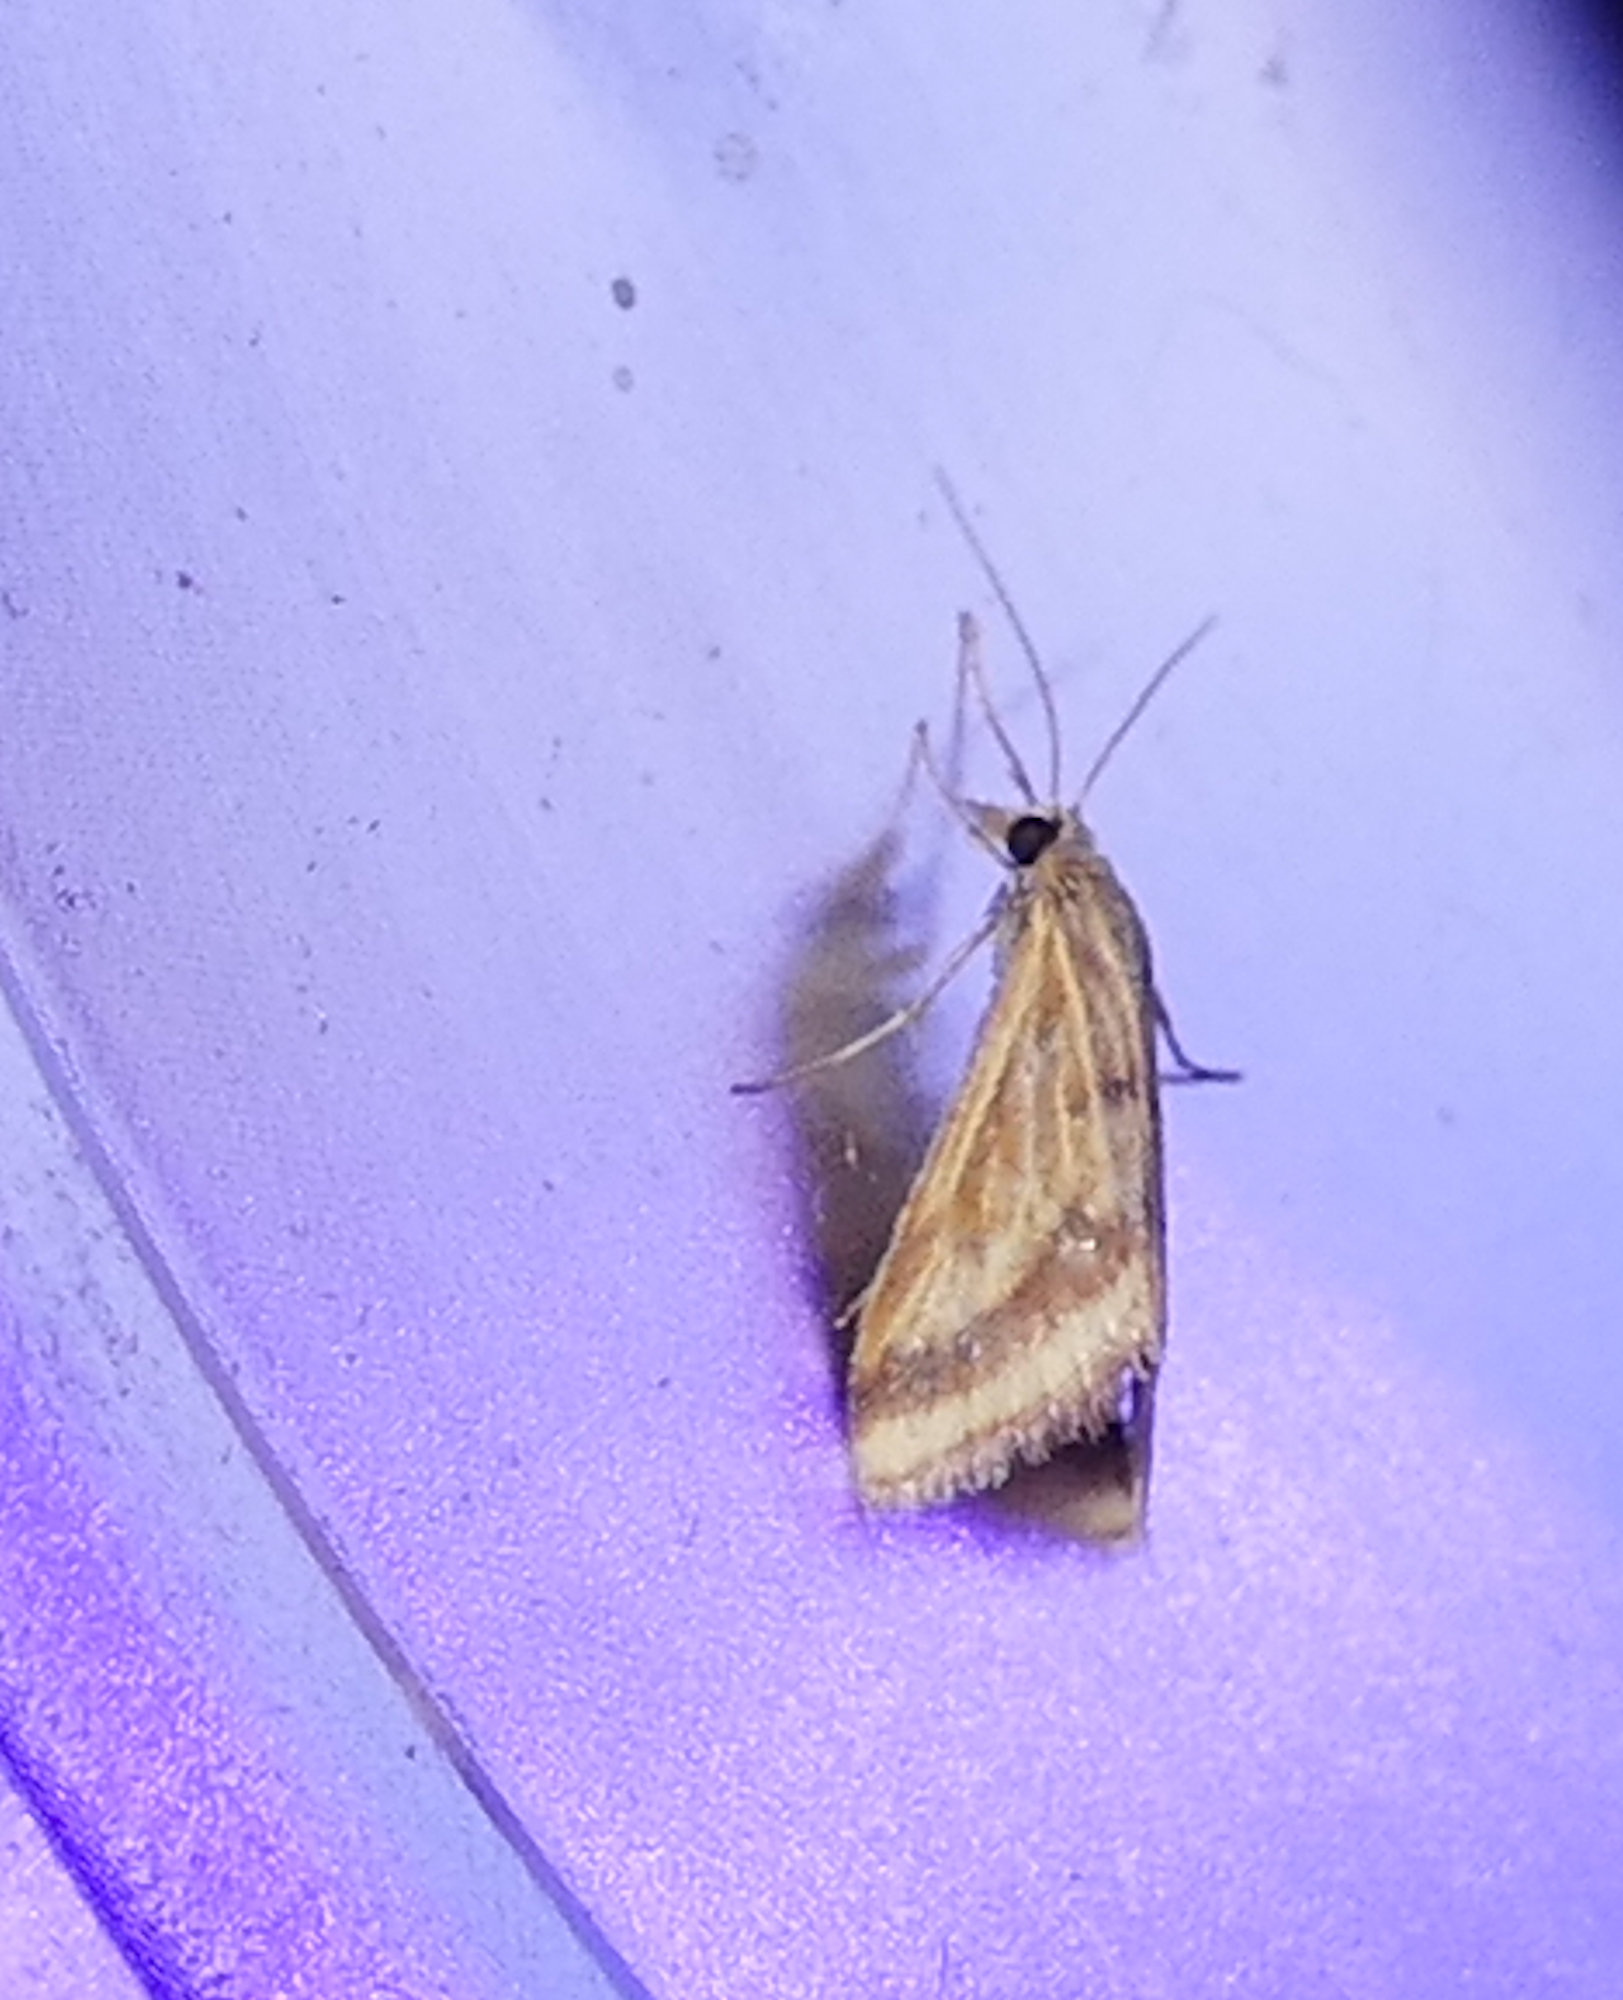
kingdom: Animalia
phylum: Arthropoda
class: Insecta
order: Lepidoptera
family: Crambidae
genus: Microtheoris
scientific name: Microtheoris ophionalis
